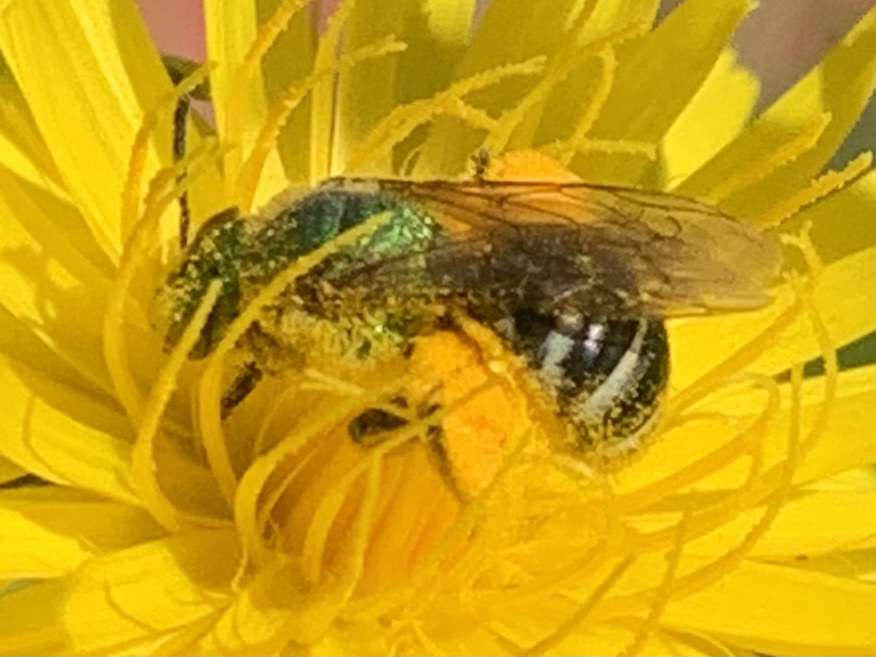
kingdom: Animalia
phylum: Arthropoda
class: Insecta
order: Hymenoptera
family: Halictidae
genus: Agapostemon
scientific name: Agapostemon virescens
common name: Bicolored striped sweat bee
